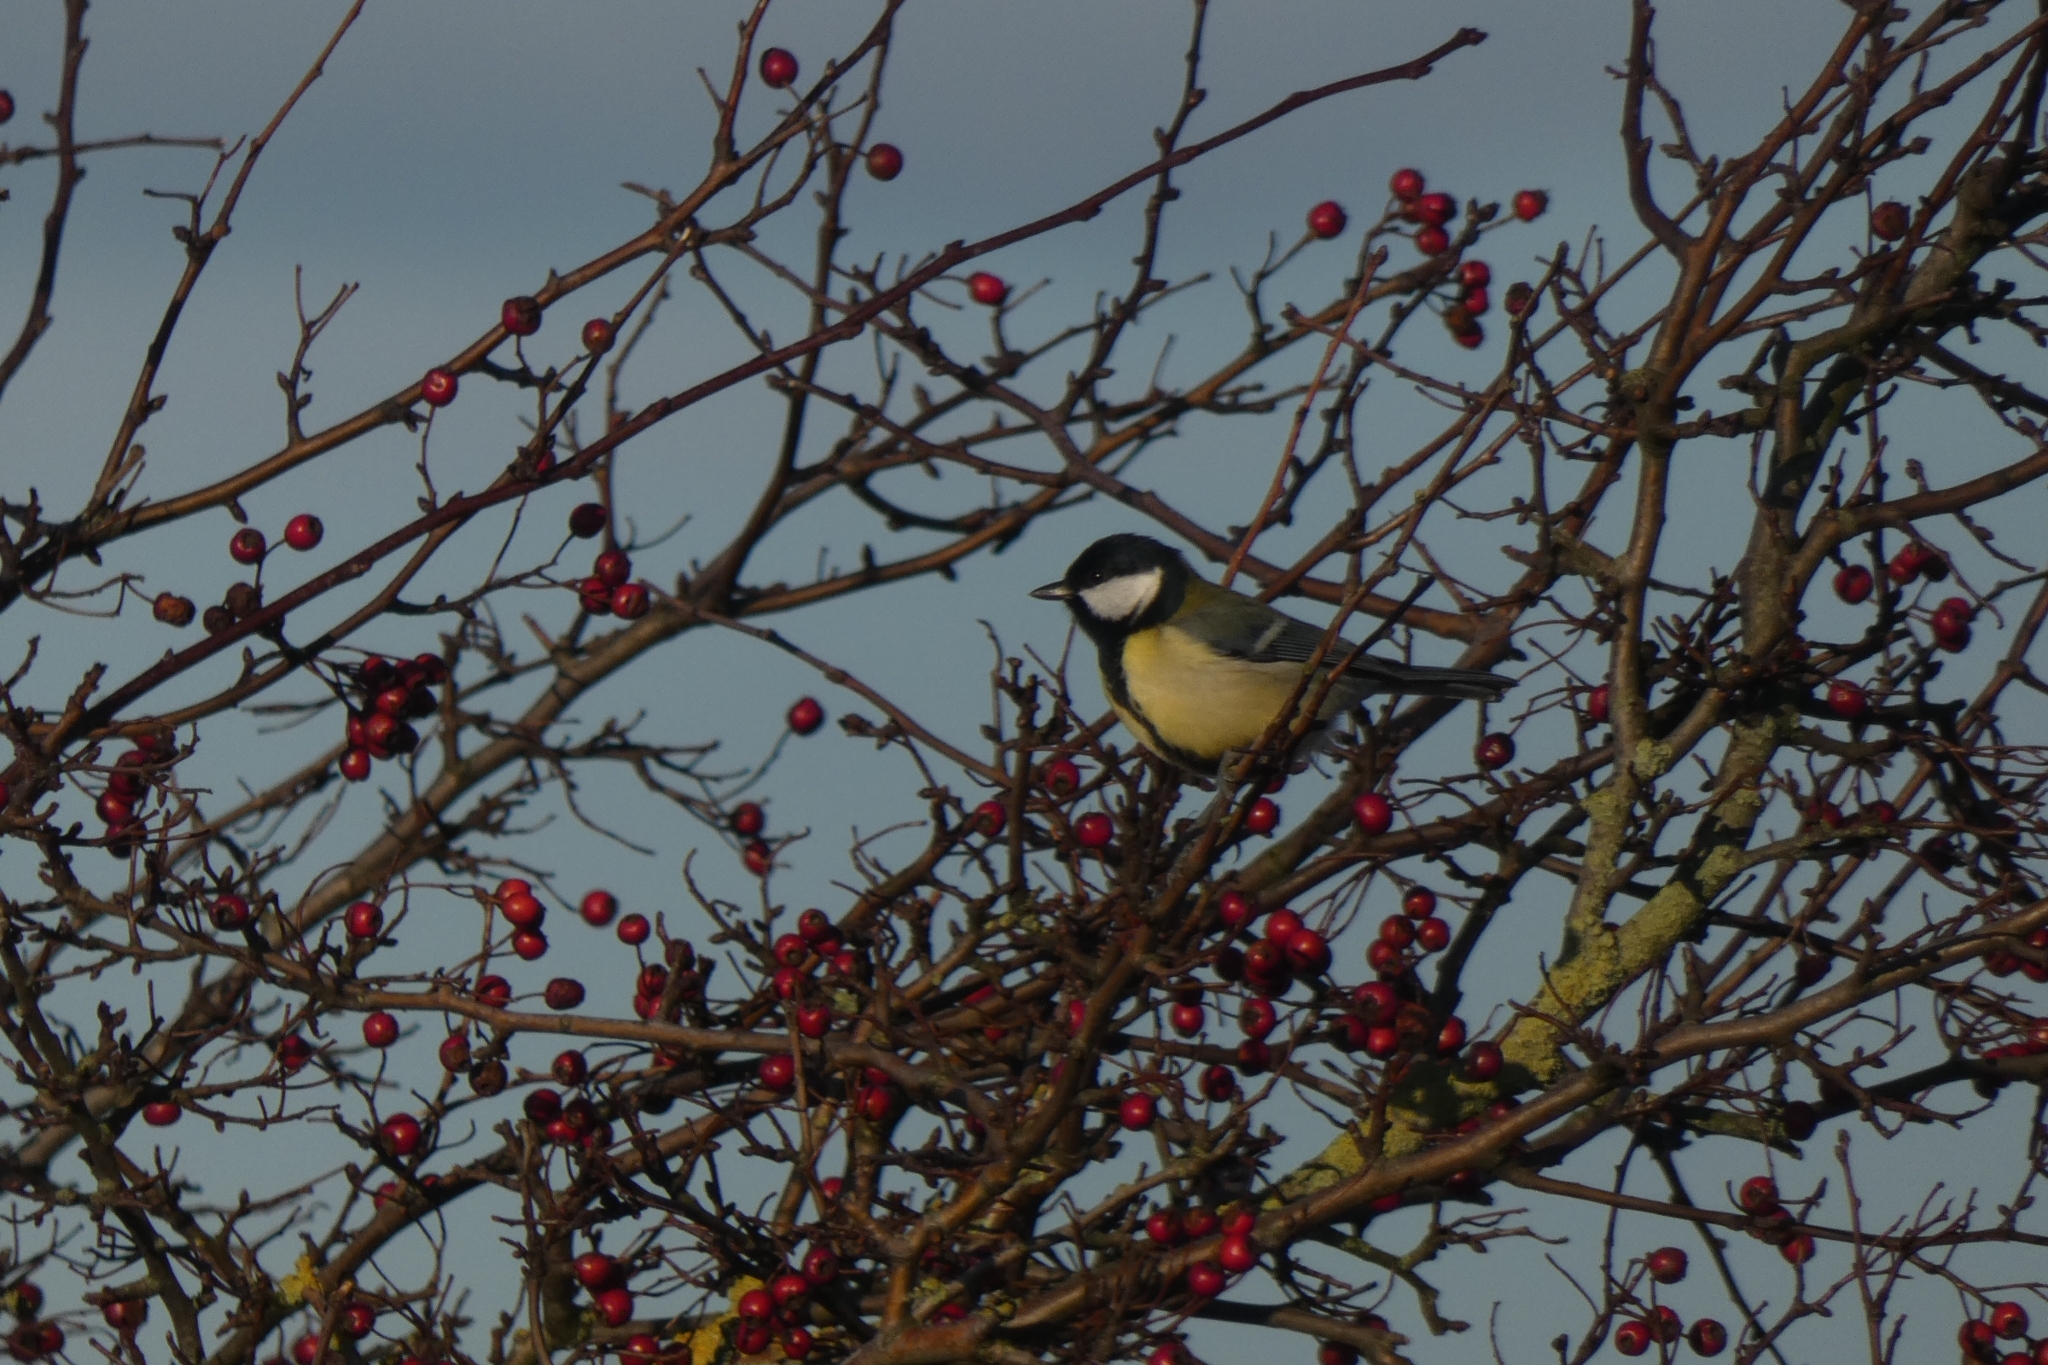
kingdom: Animalia
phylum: Chordata
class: Aves
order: Passeriformes
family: Paridae
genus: Parus
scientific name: Parus major
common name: Great tit
